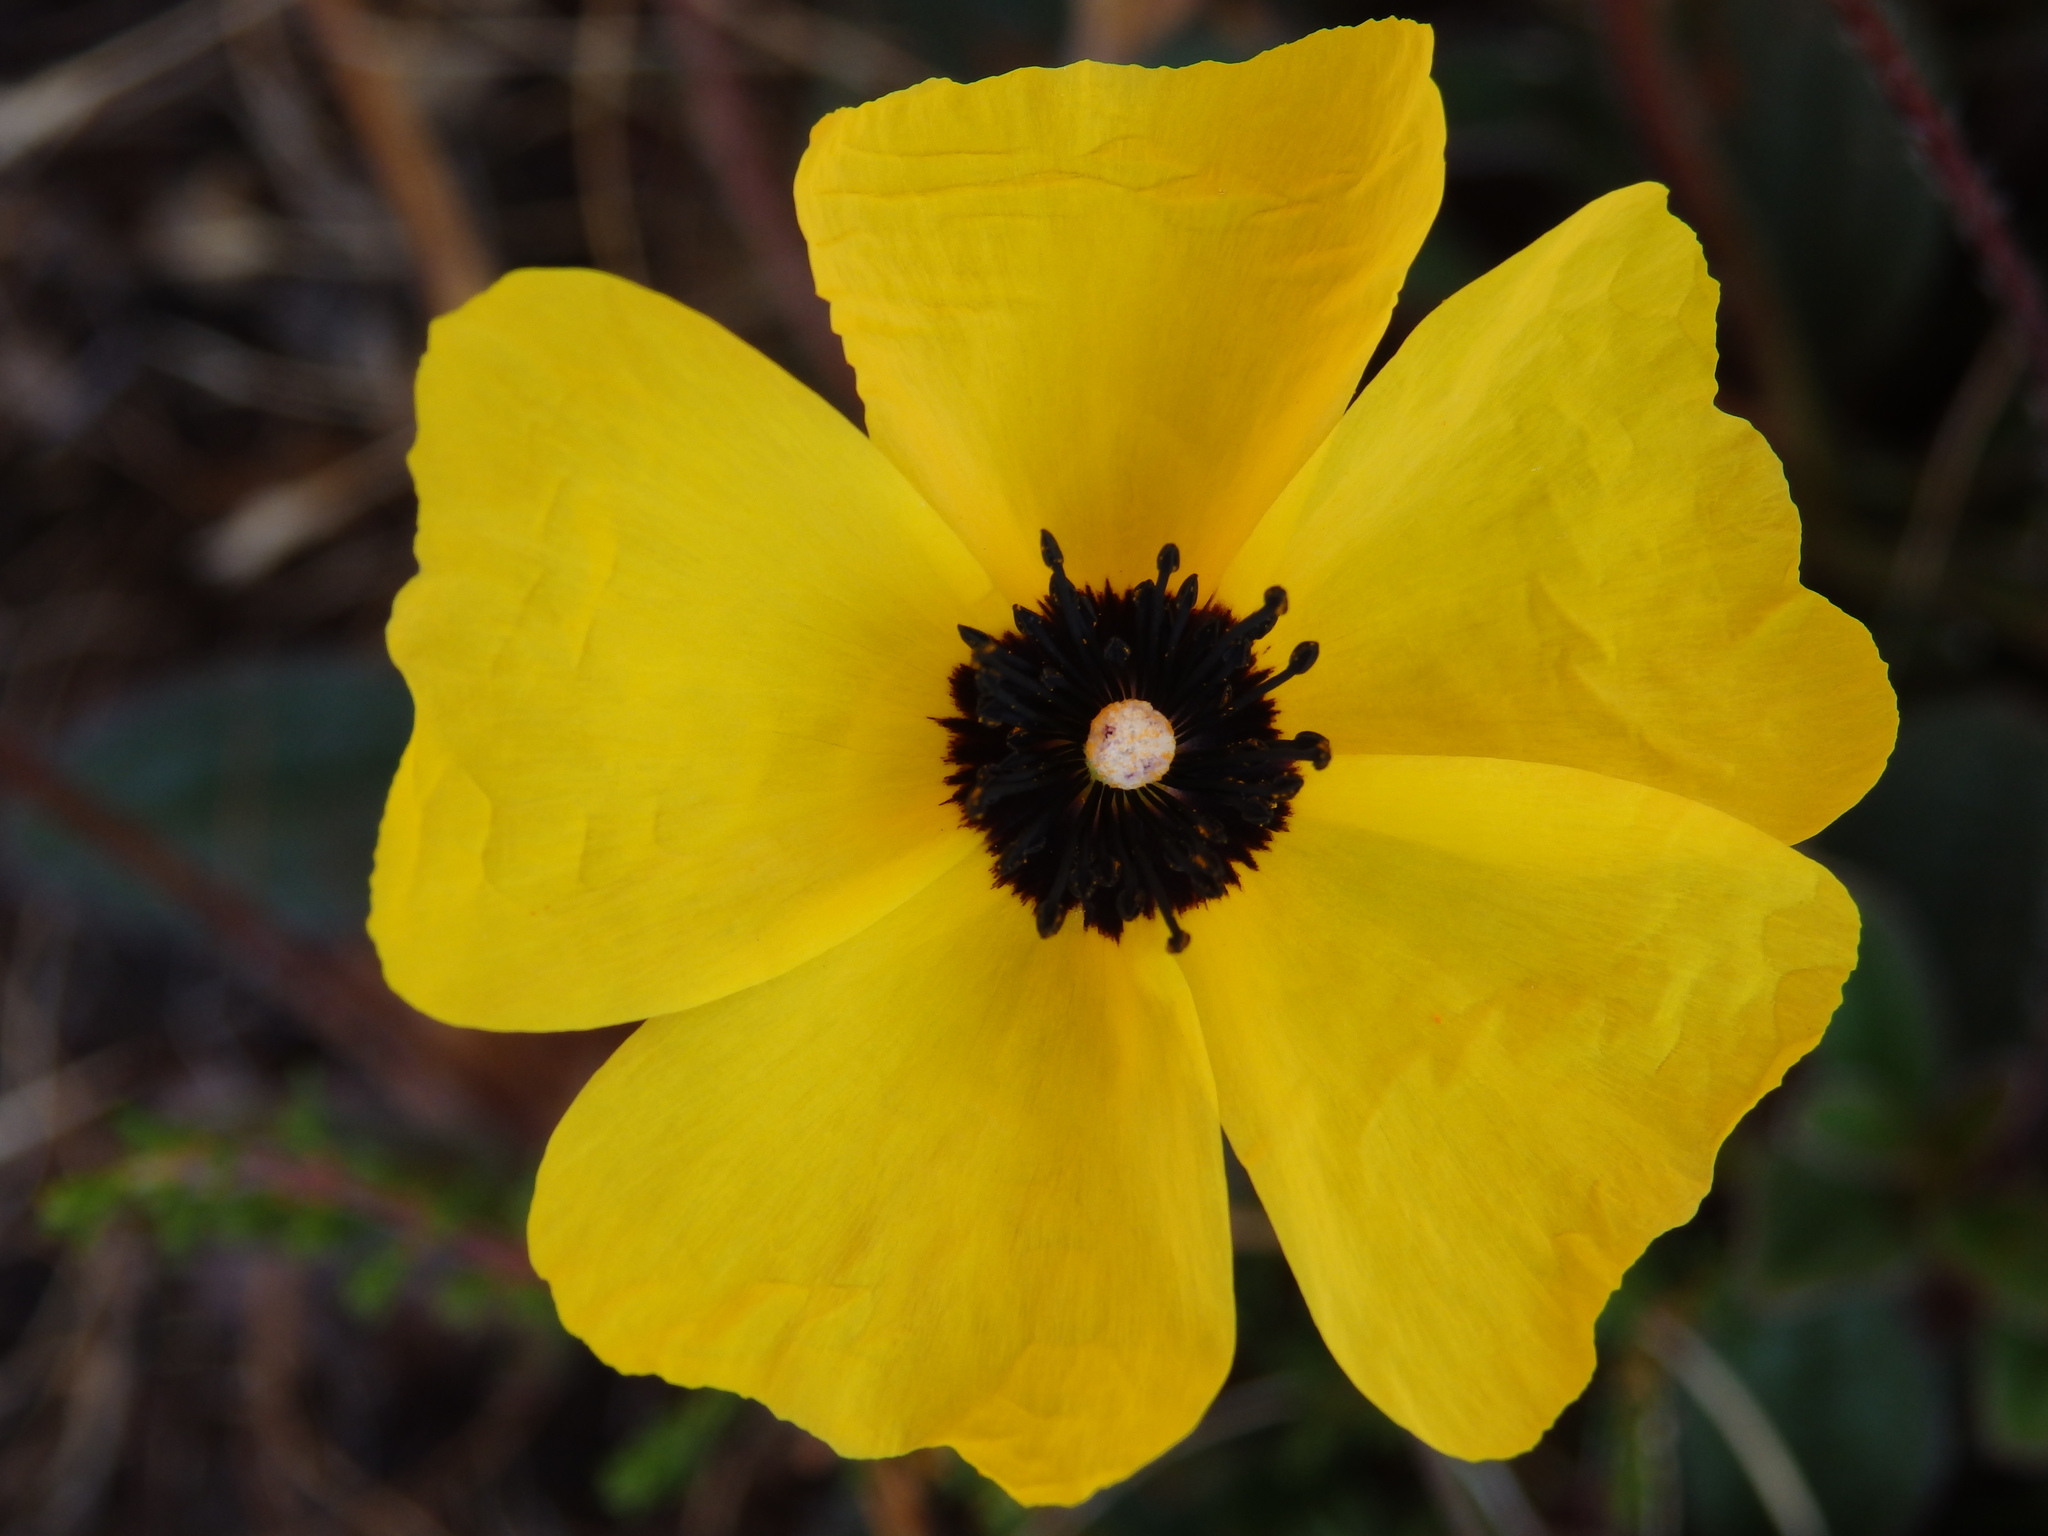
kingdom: Plantae
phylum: Tracheophyta
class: Magnoliopsida
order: Malvales
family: Cistaceae
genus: Tuberaria
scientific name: Tuberaria globulariifolia
